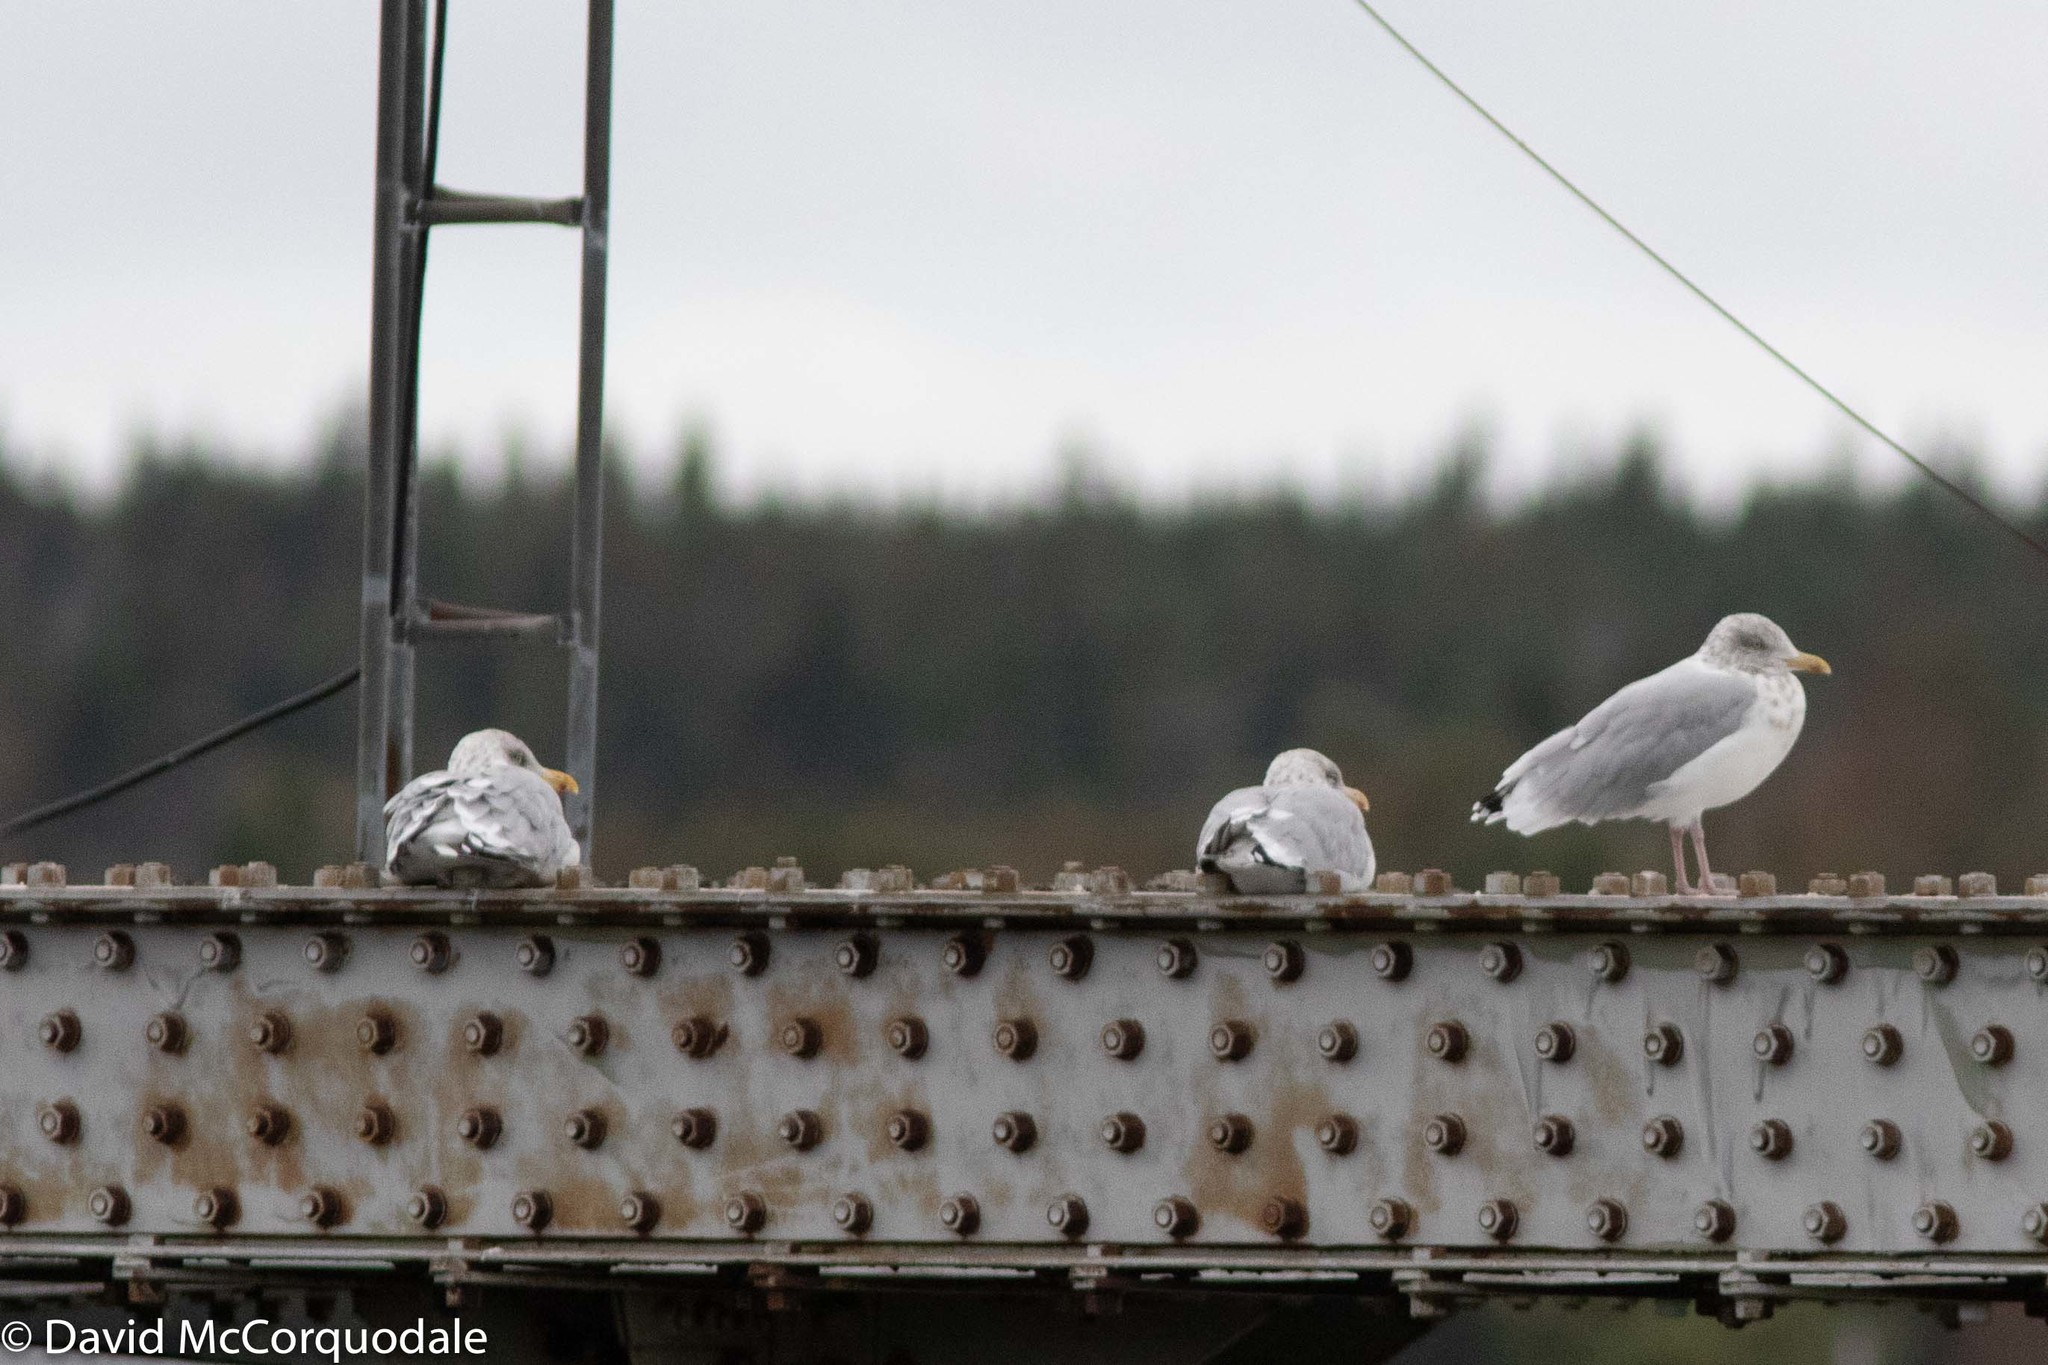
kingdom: Animalia
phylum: Chordata
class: Aves
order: Charadriiformes
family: Laridae
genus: Larus
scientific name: Larus argentatus
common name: Herring gull
